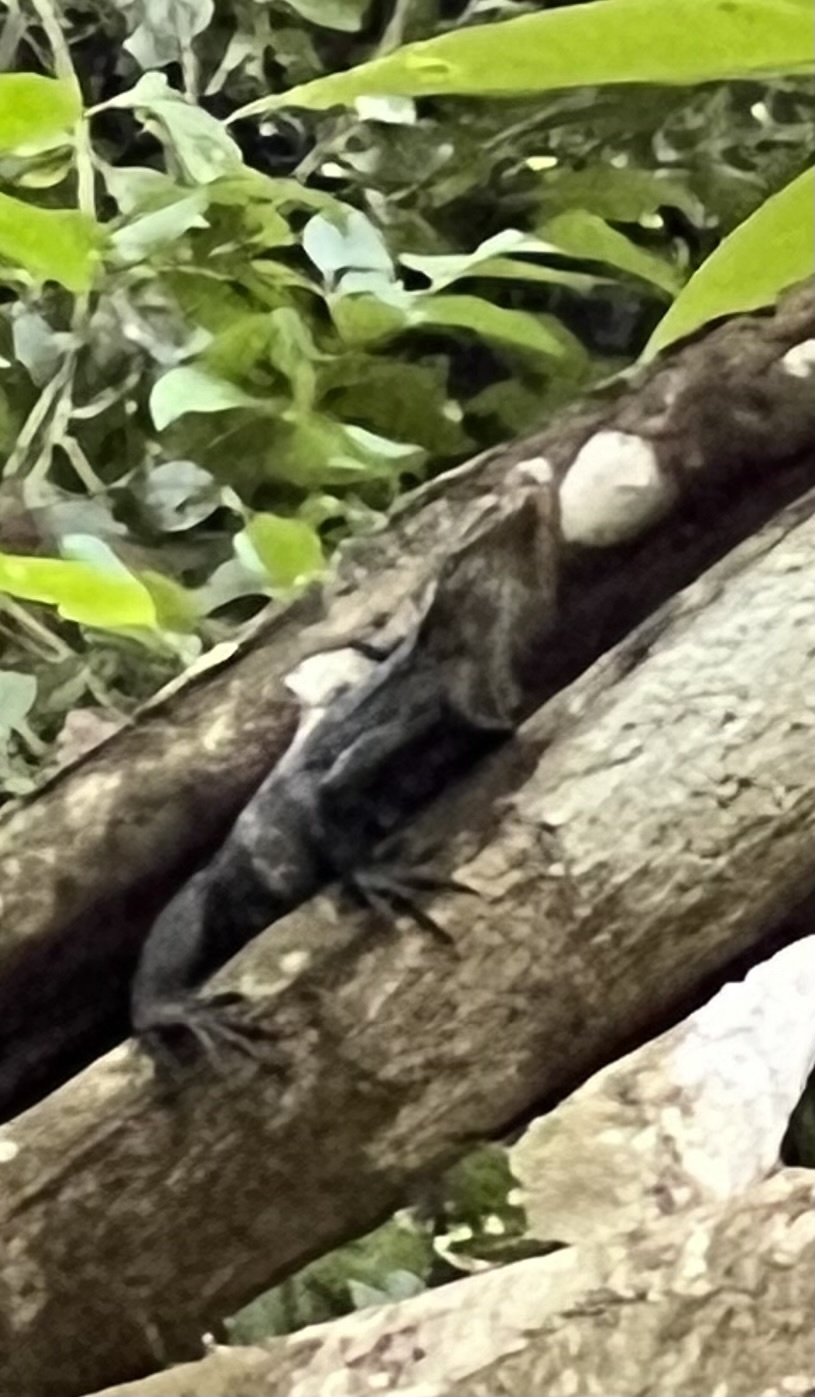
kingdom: Animalia
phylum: Chordata
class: Squamata
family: Iguanidae
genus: Ctenosaura
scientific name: Ctenosaura similis
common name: Black spiny-tailed iguana
